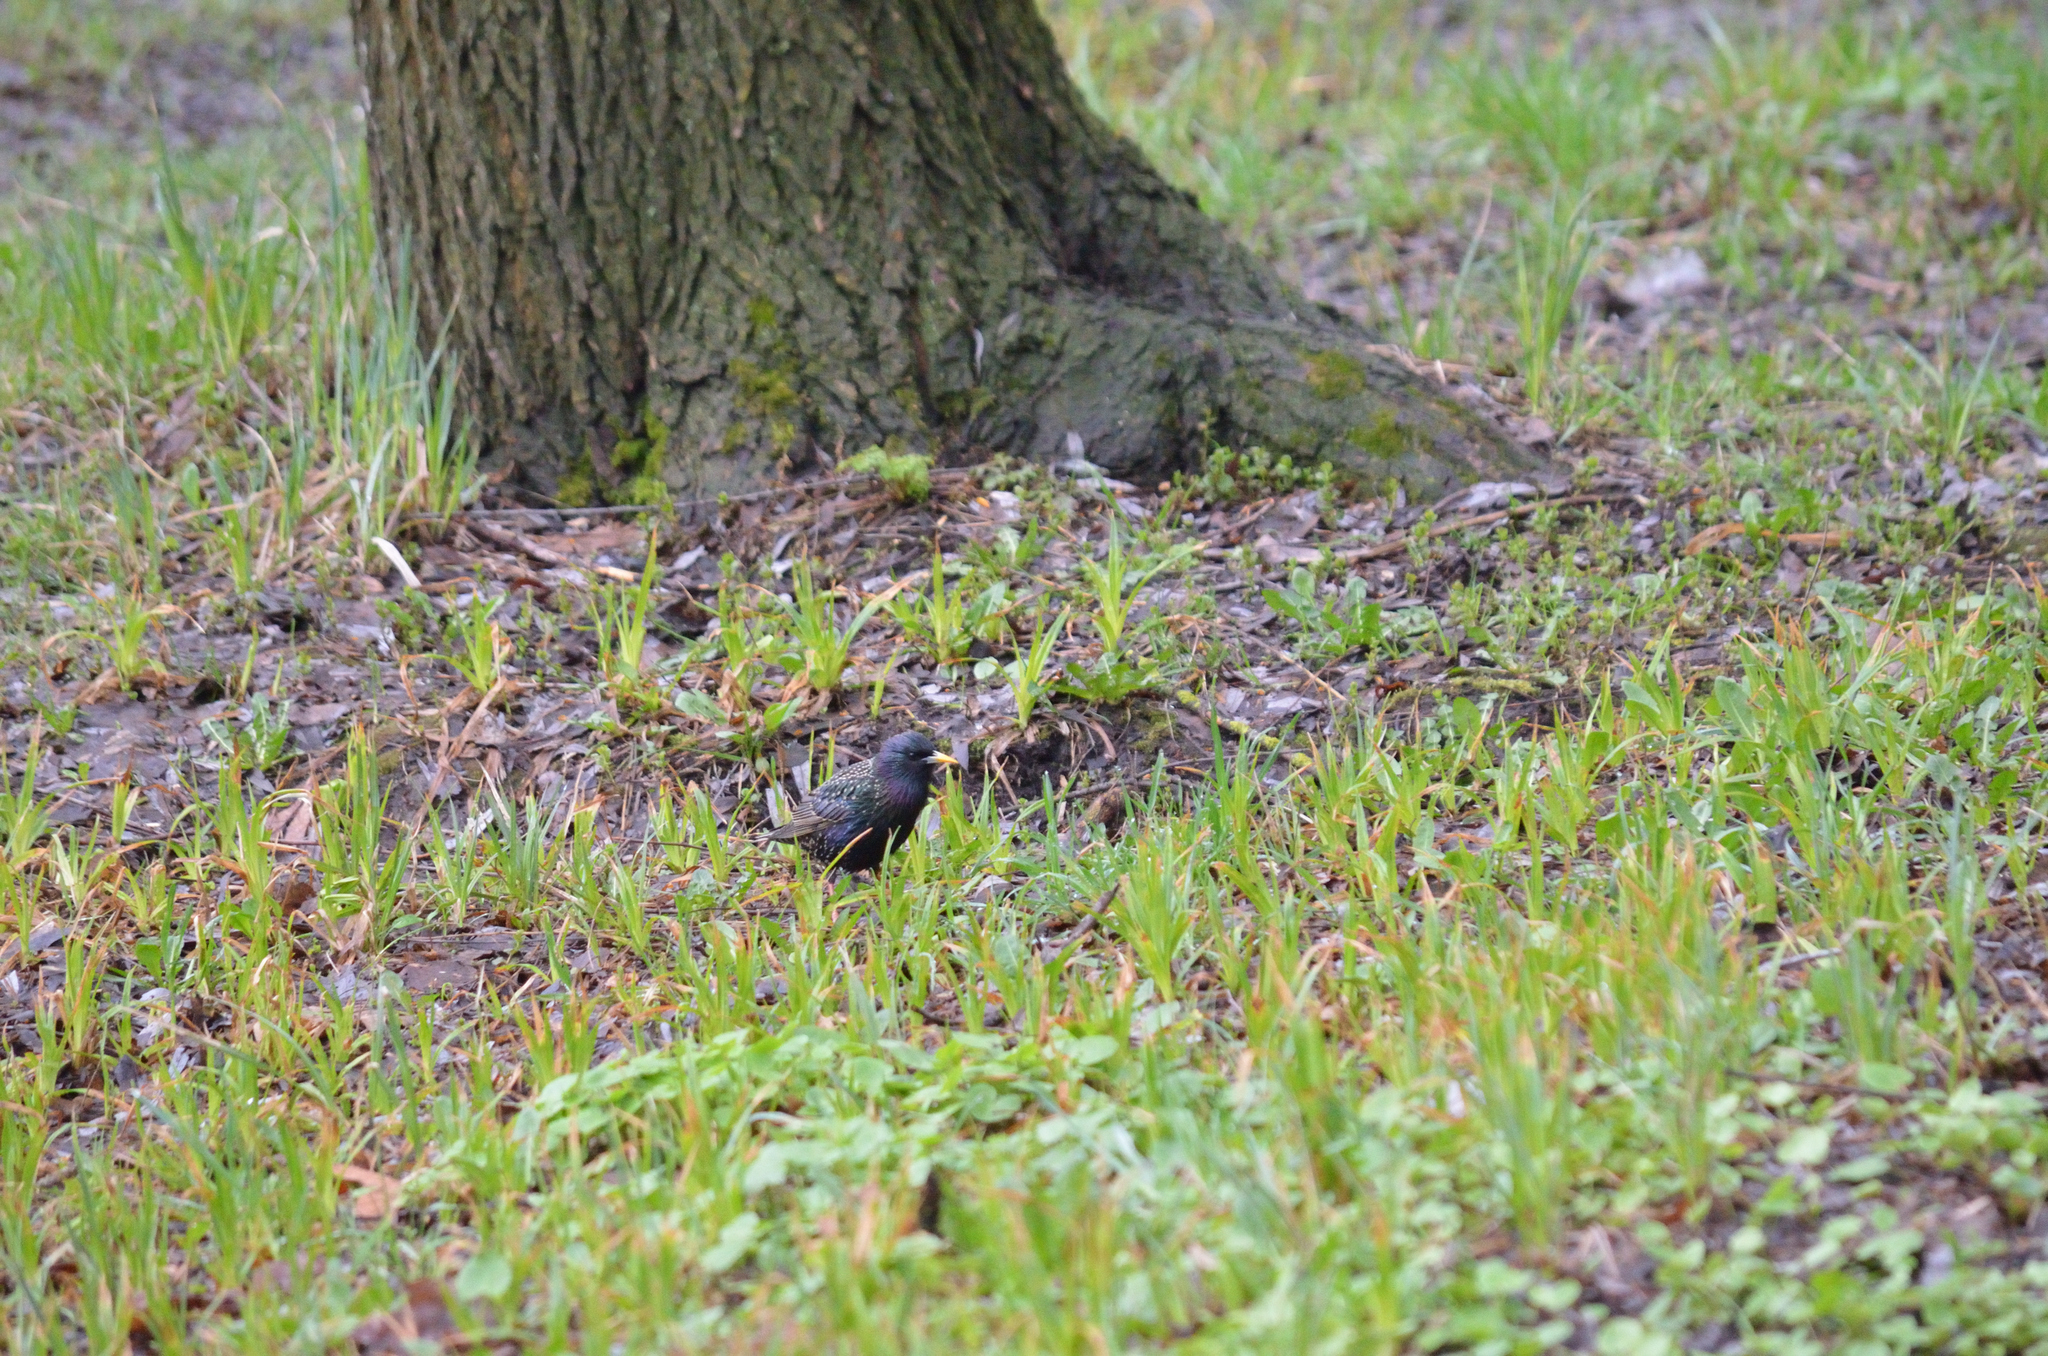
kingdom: Animalia
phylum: Chordata
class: Aves
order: Passeriformes
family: Sturnidae
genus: Sturnus
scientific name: Sturnus vulgaris
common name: Common starling
